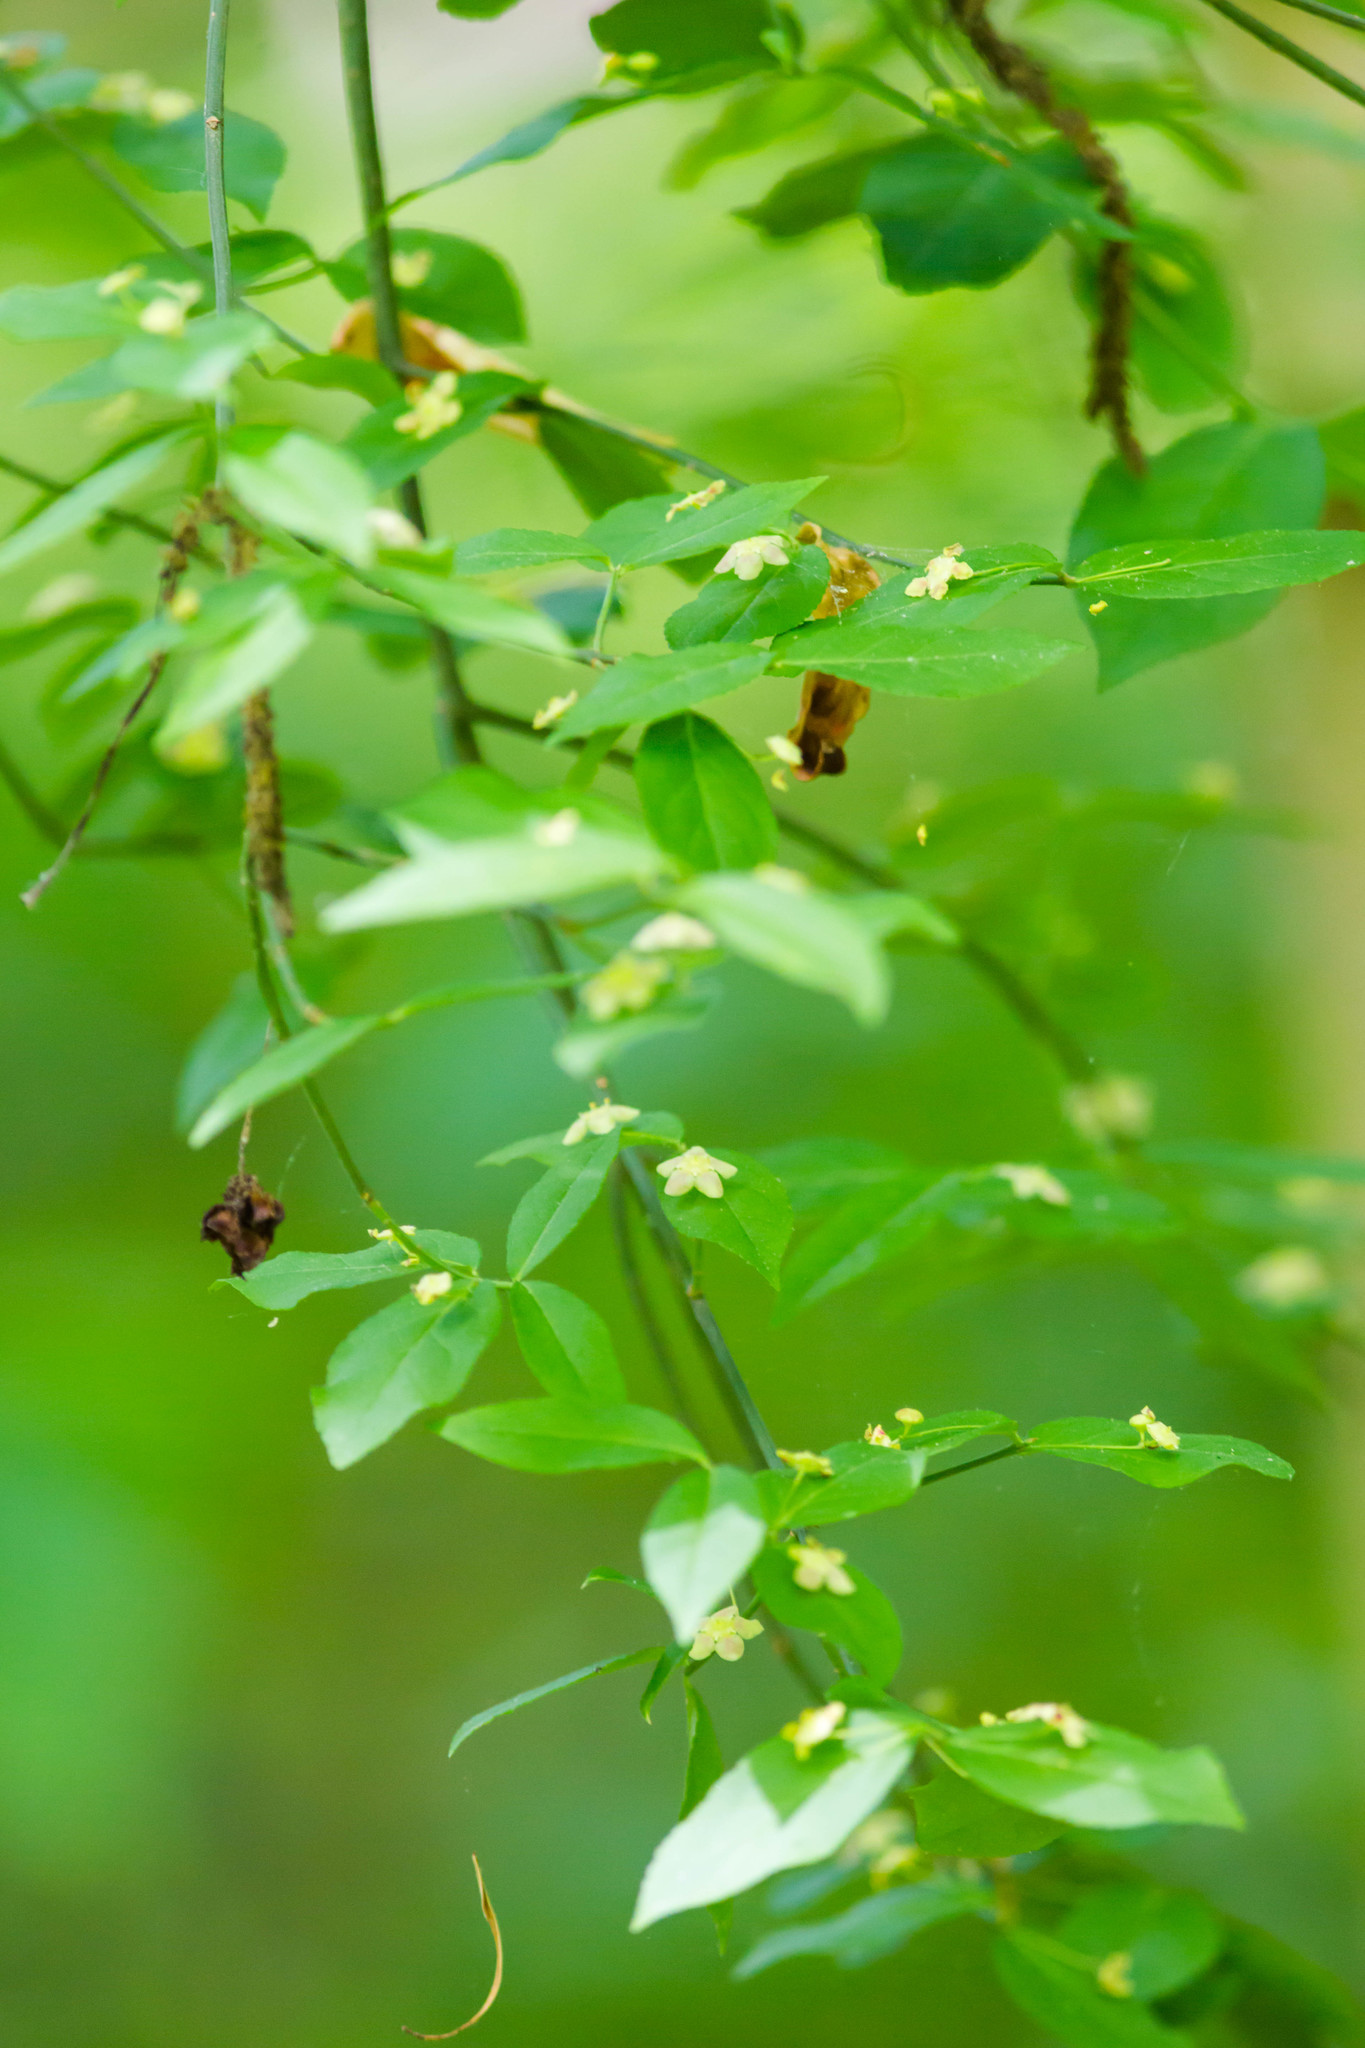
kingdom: Plantae
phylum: Tracheophyta
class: Magnoliopsida
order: Celastrales
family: Celastraceae
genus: Euonymus
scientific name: Euonymus americanus
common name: Bursting-heart
